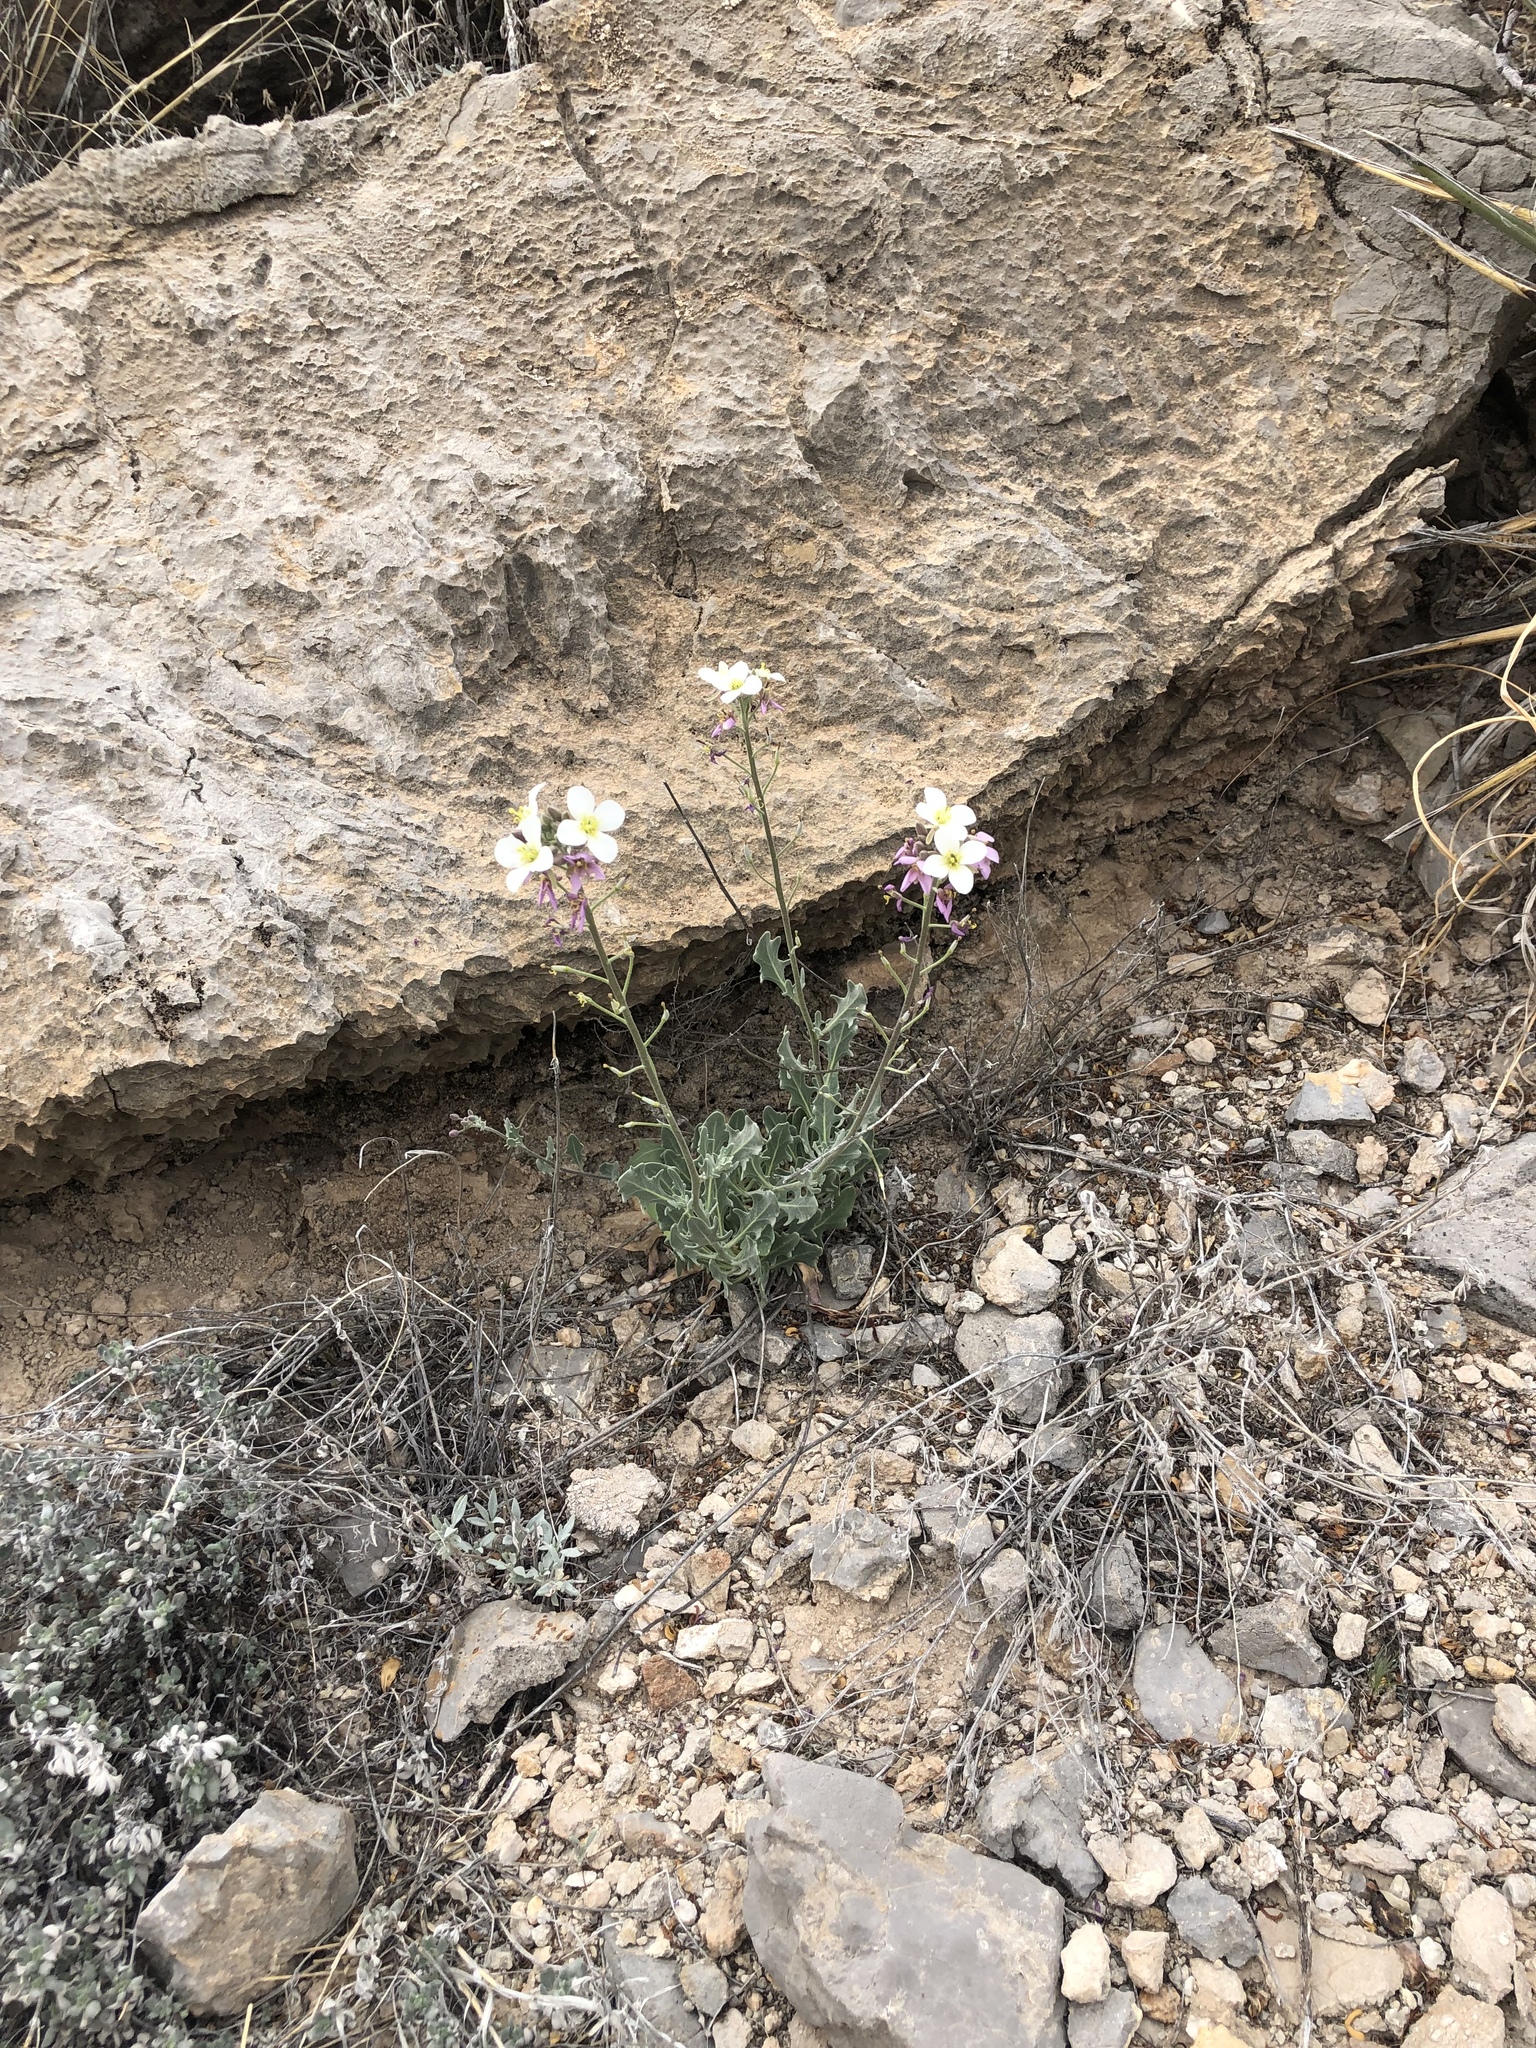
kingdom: Plantae
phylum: Tracheophyta
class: Magnoliopsida
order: Brassicales
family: Brassicaceae
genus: Nerisyrenia
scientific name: Nerisyrenia camporum
